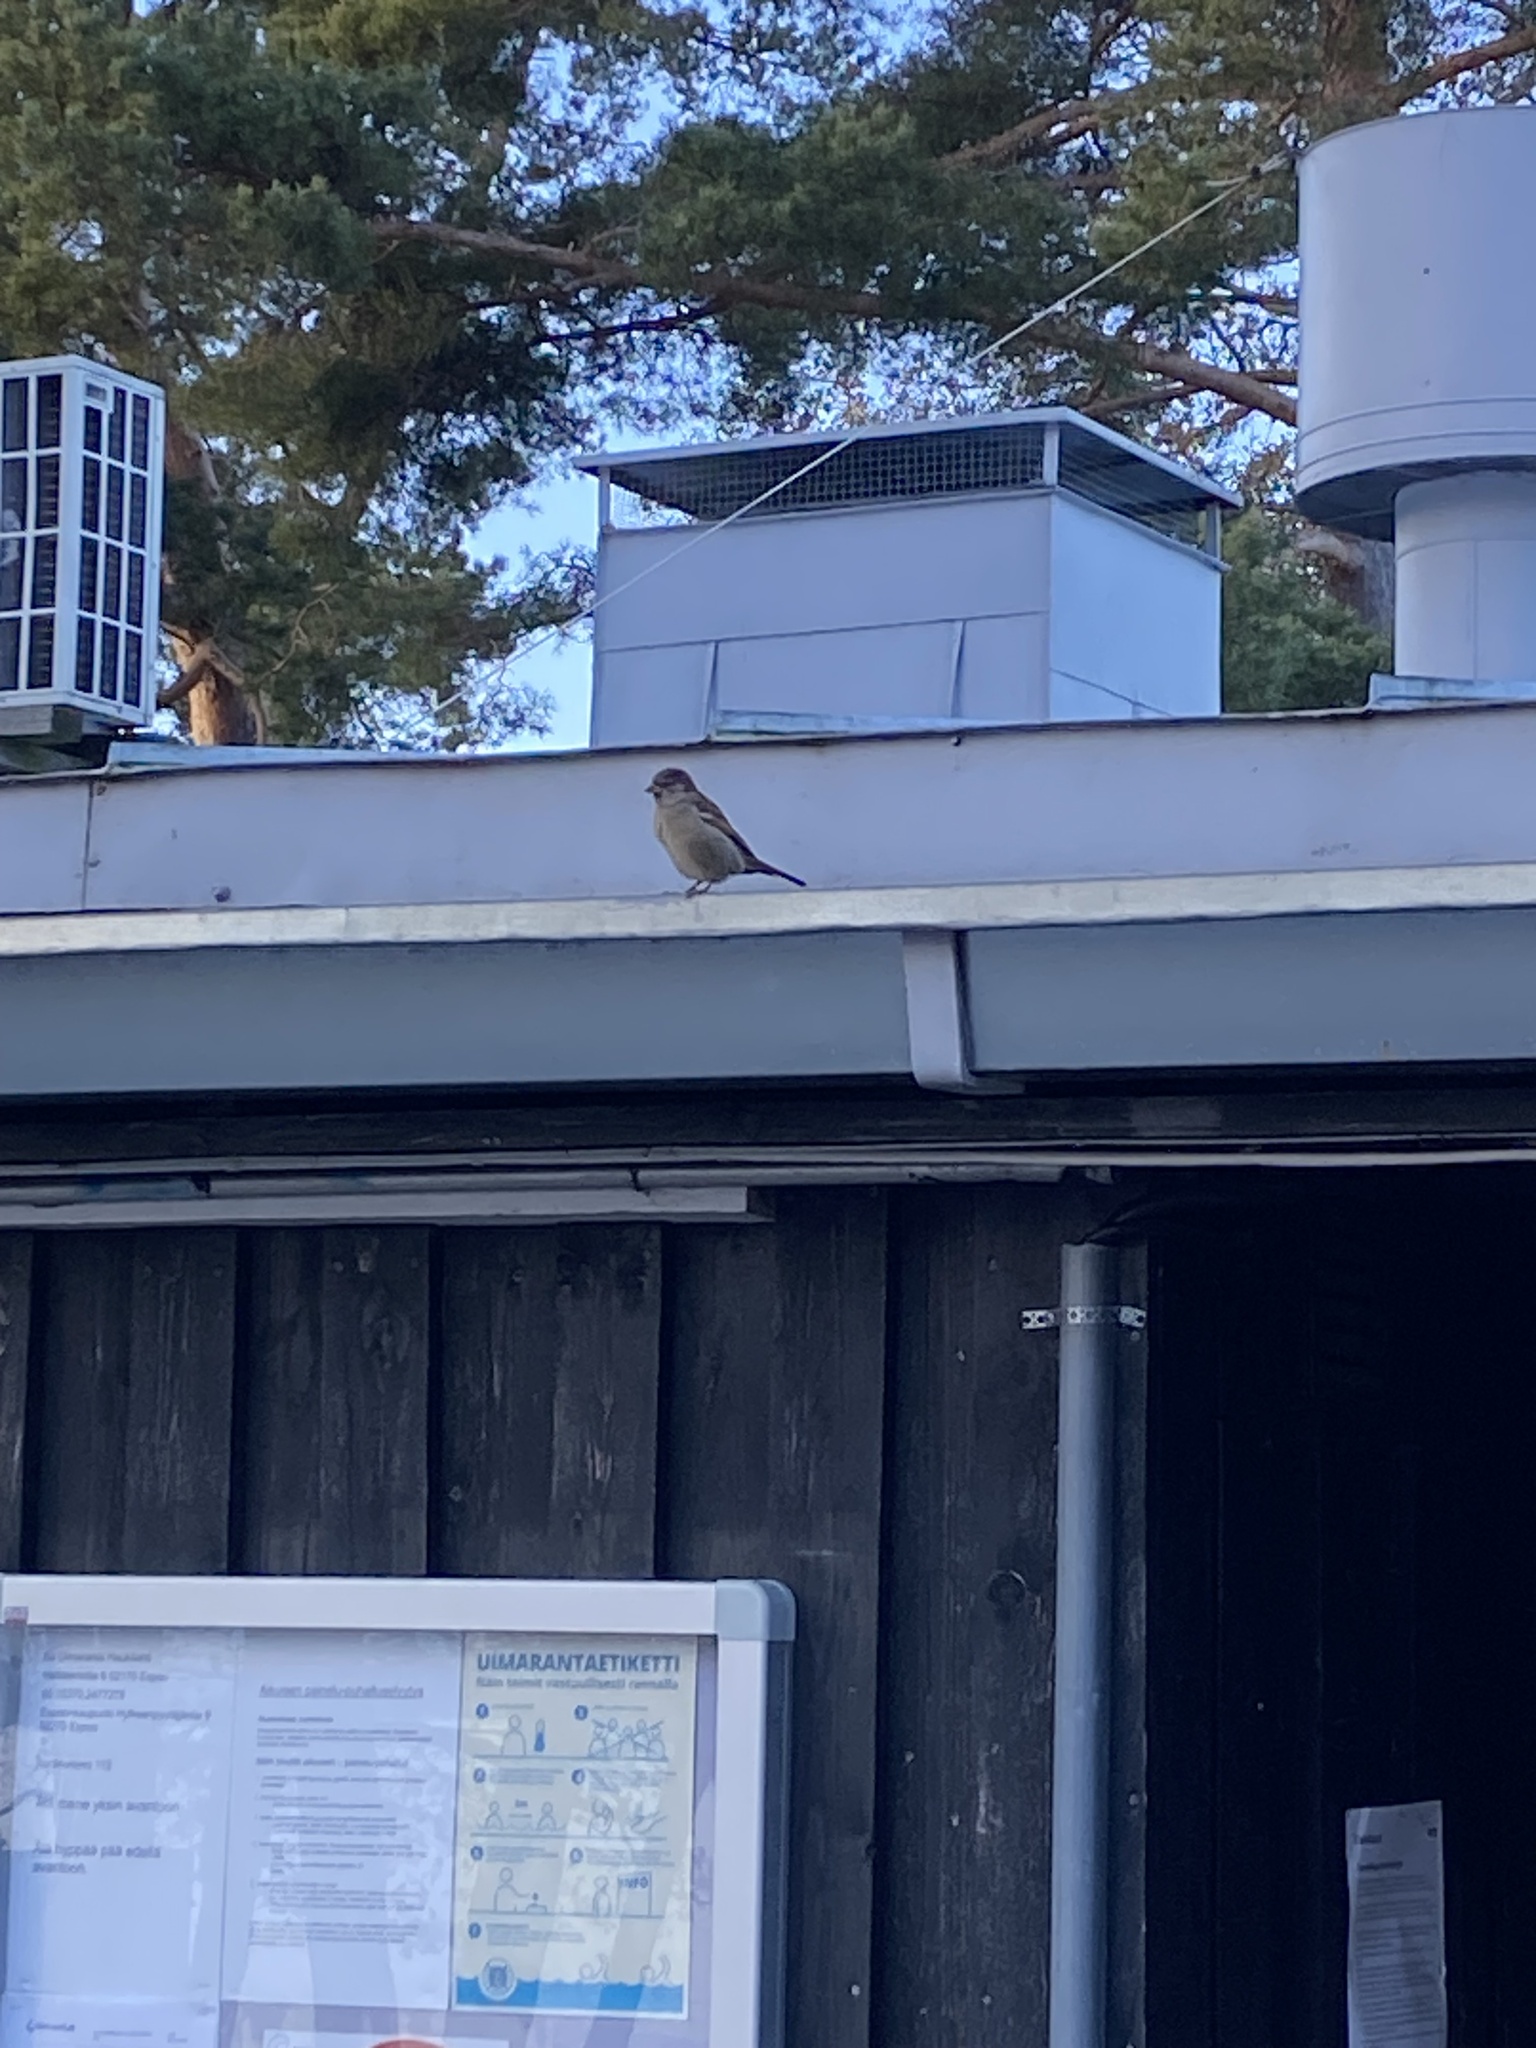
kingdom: Animalia
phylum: Chordata
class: Aves
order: Passeriformes
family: Passeridae
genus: Passer
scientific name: Passer domesticus
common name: House sparrow
